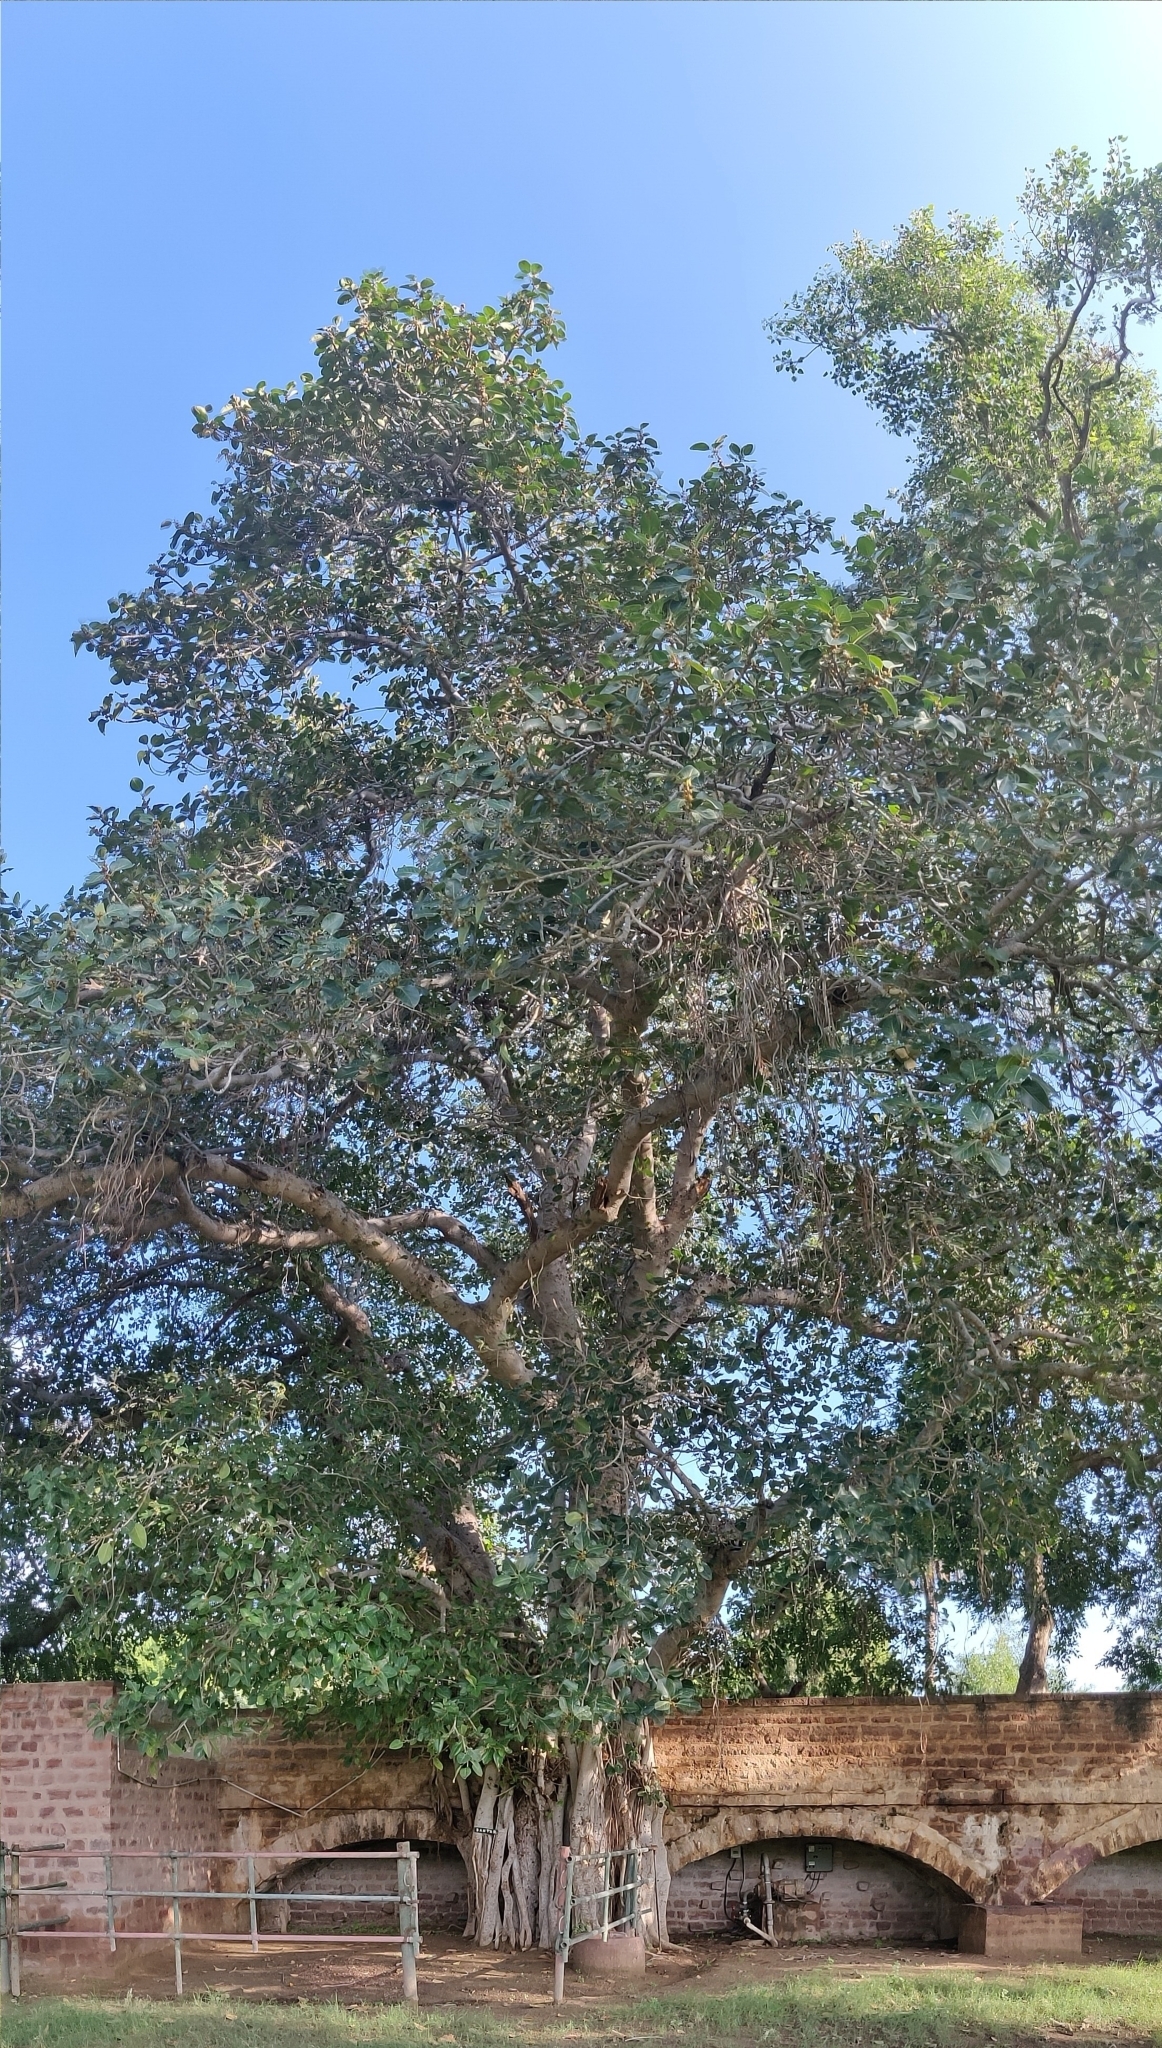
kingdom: Plantae
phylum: Tracheophyta
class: Magnoliopsida
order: Rosales
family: Moraceae
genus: Ficus
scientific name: Ficus benghalensis
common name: Indian banyan
